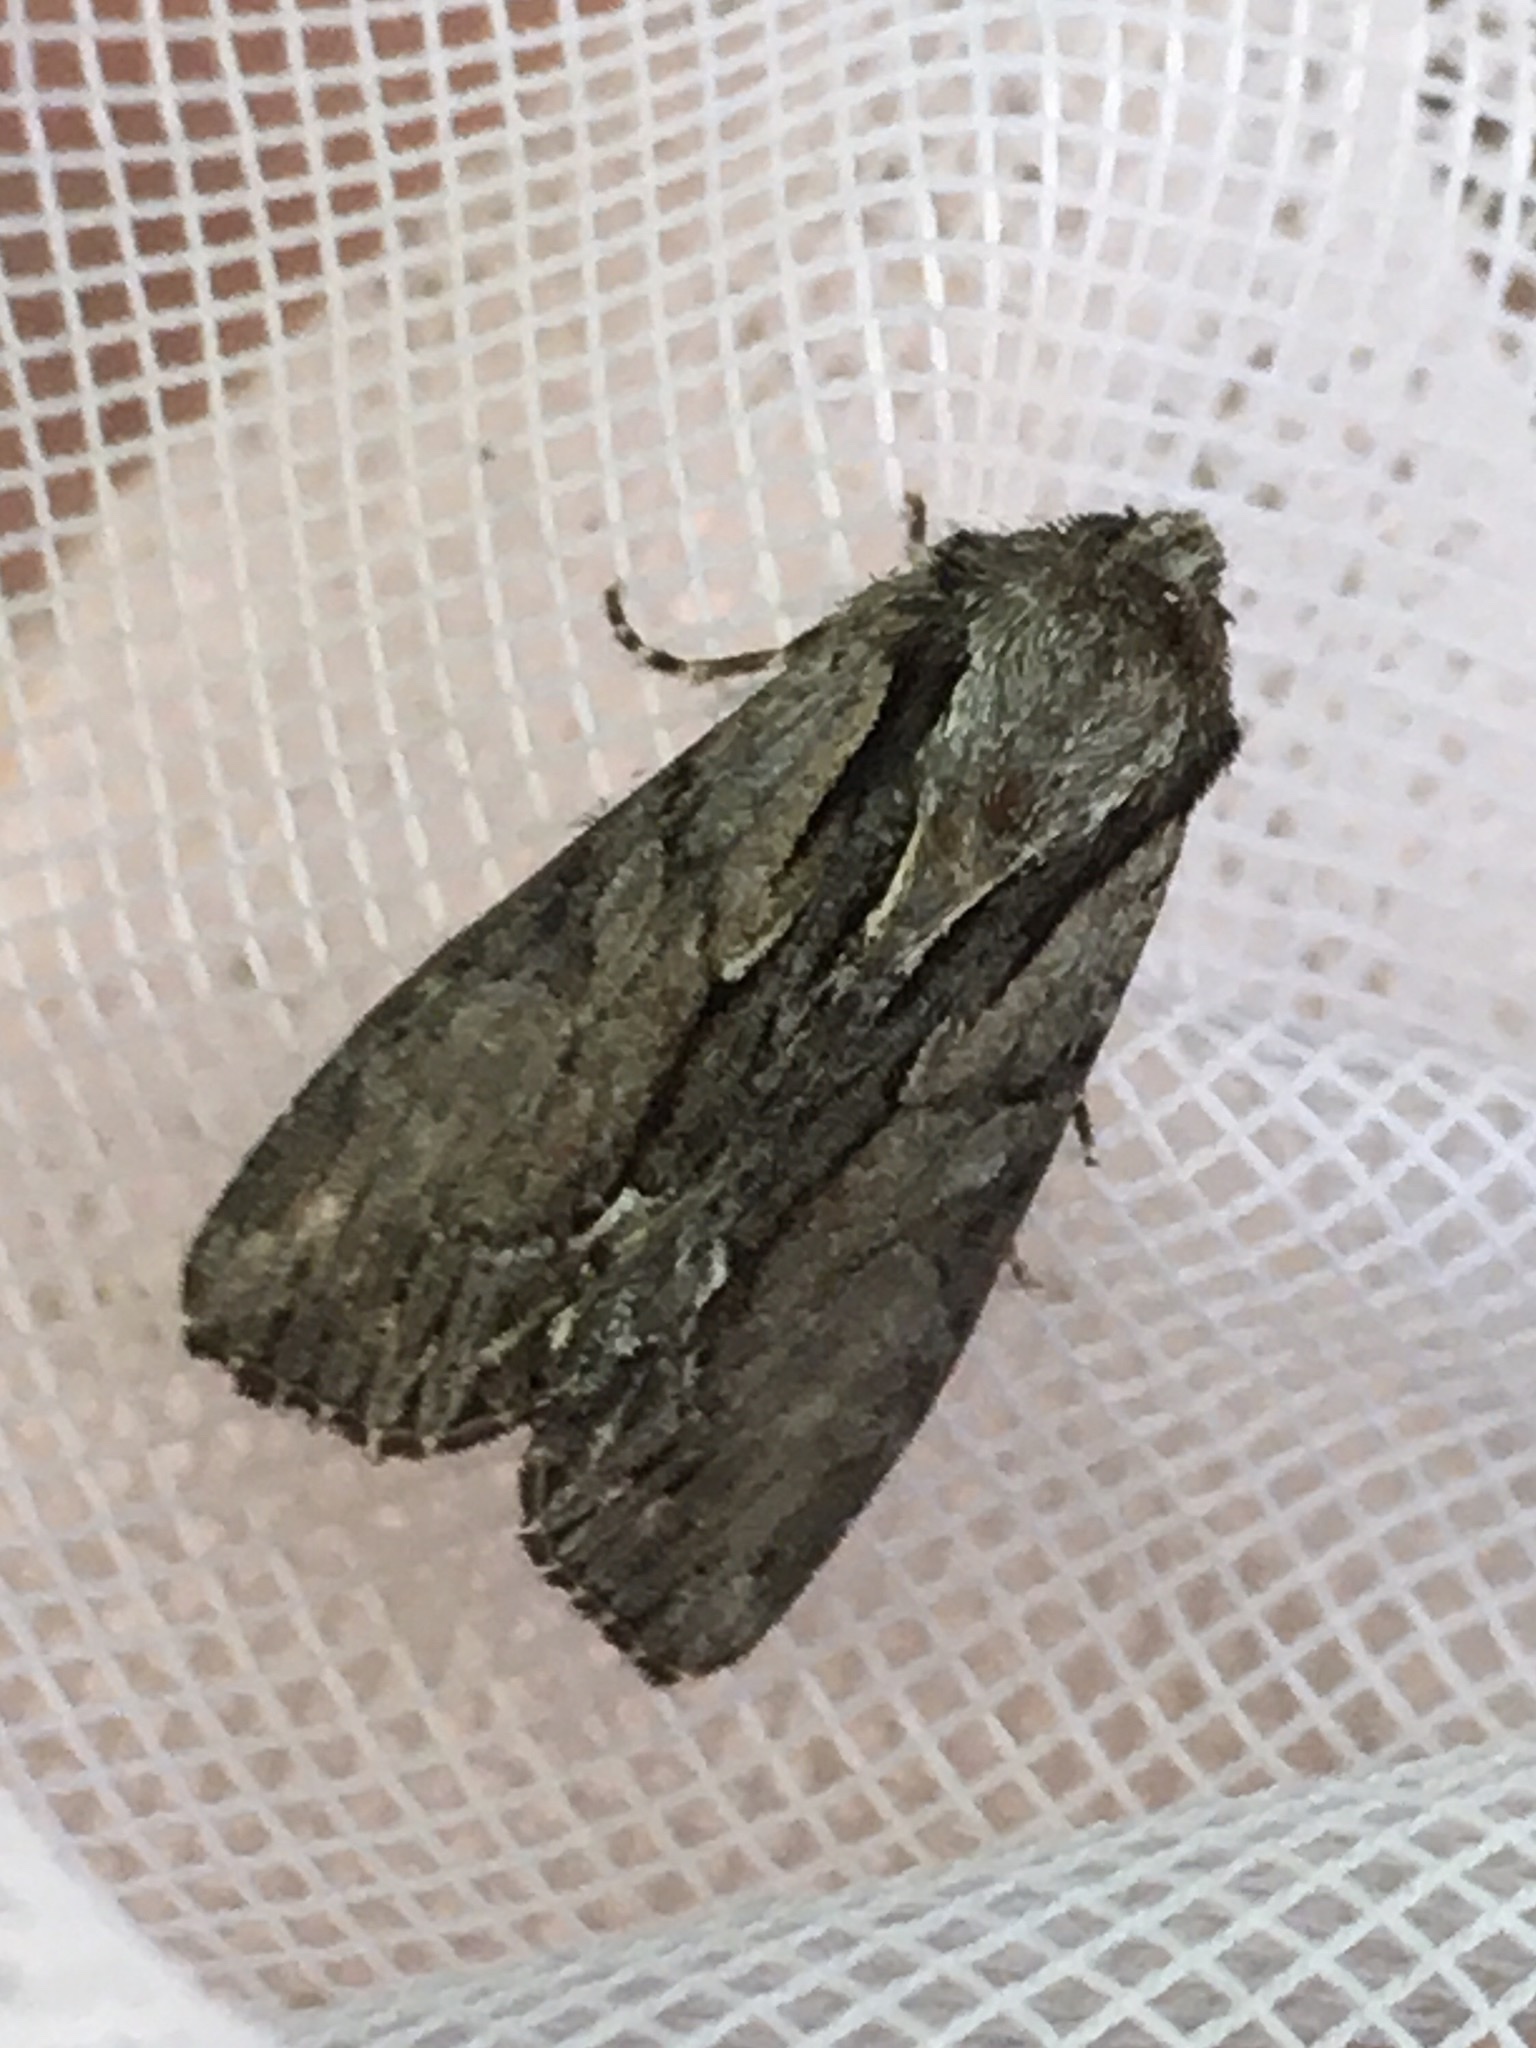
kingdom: Animalia
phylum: Arthropoda
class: Insecta
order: Lepidoptera
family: Noctuidae
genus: Hyppa
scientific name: Hyppa xylinoides
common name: Common hyppa moth
